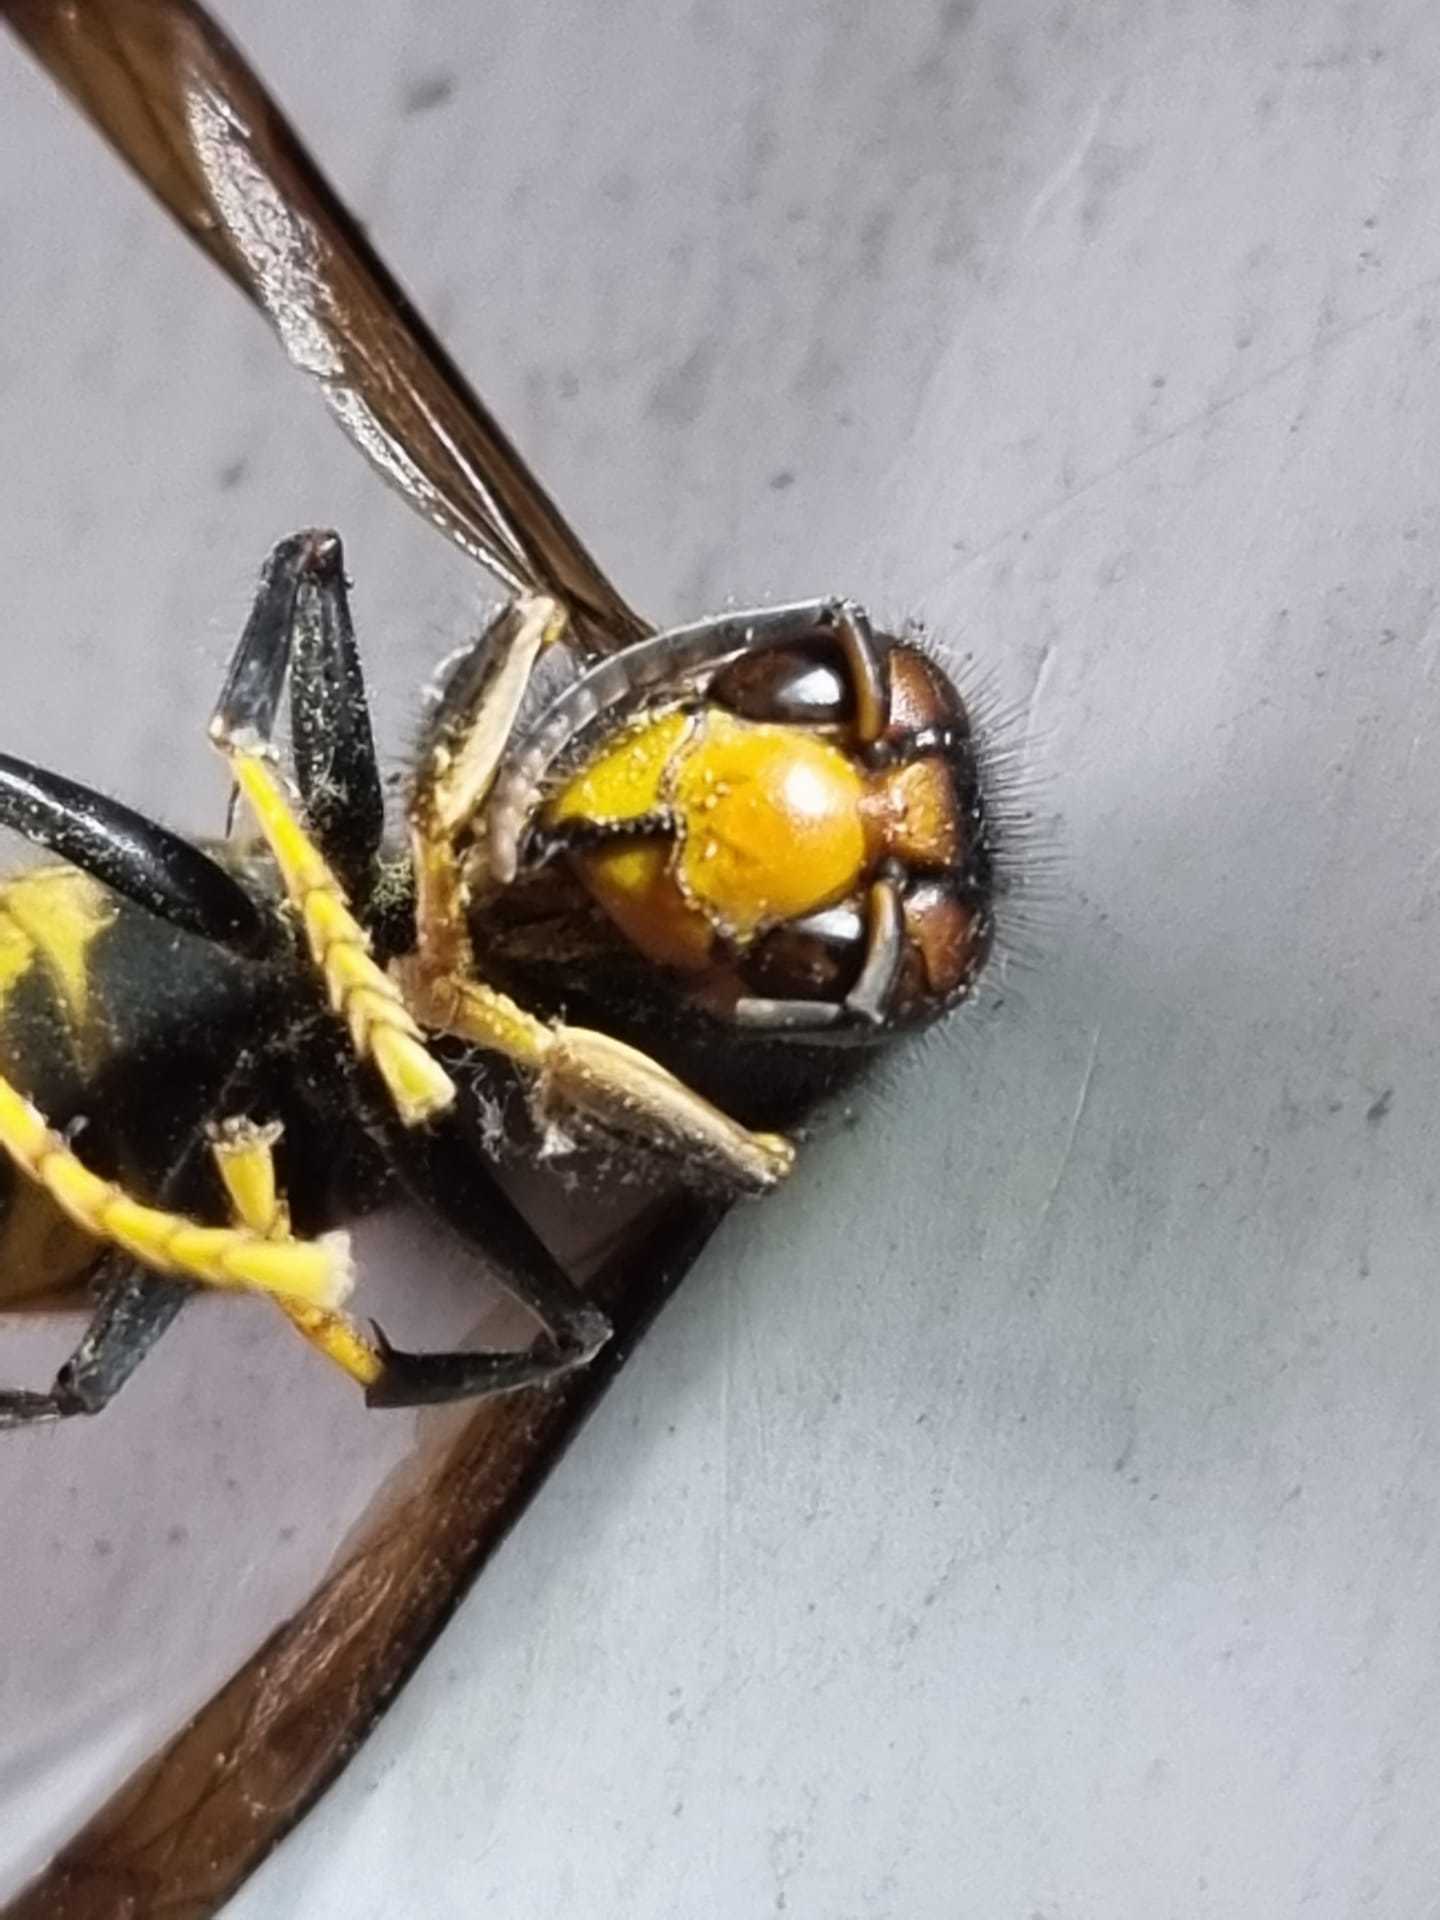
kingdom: Animalia
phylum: Arthropoda
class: Insecta
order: Hymenoptera
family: Vespidae
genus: Vespa
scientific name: Vespa velutina
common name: Asian hornet
